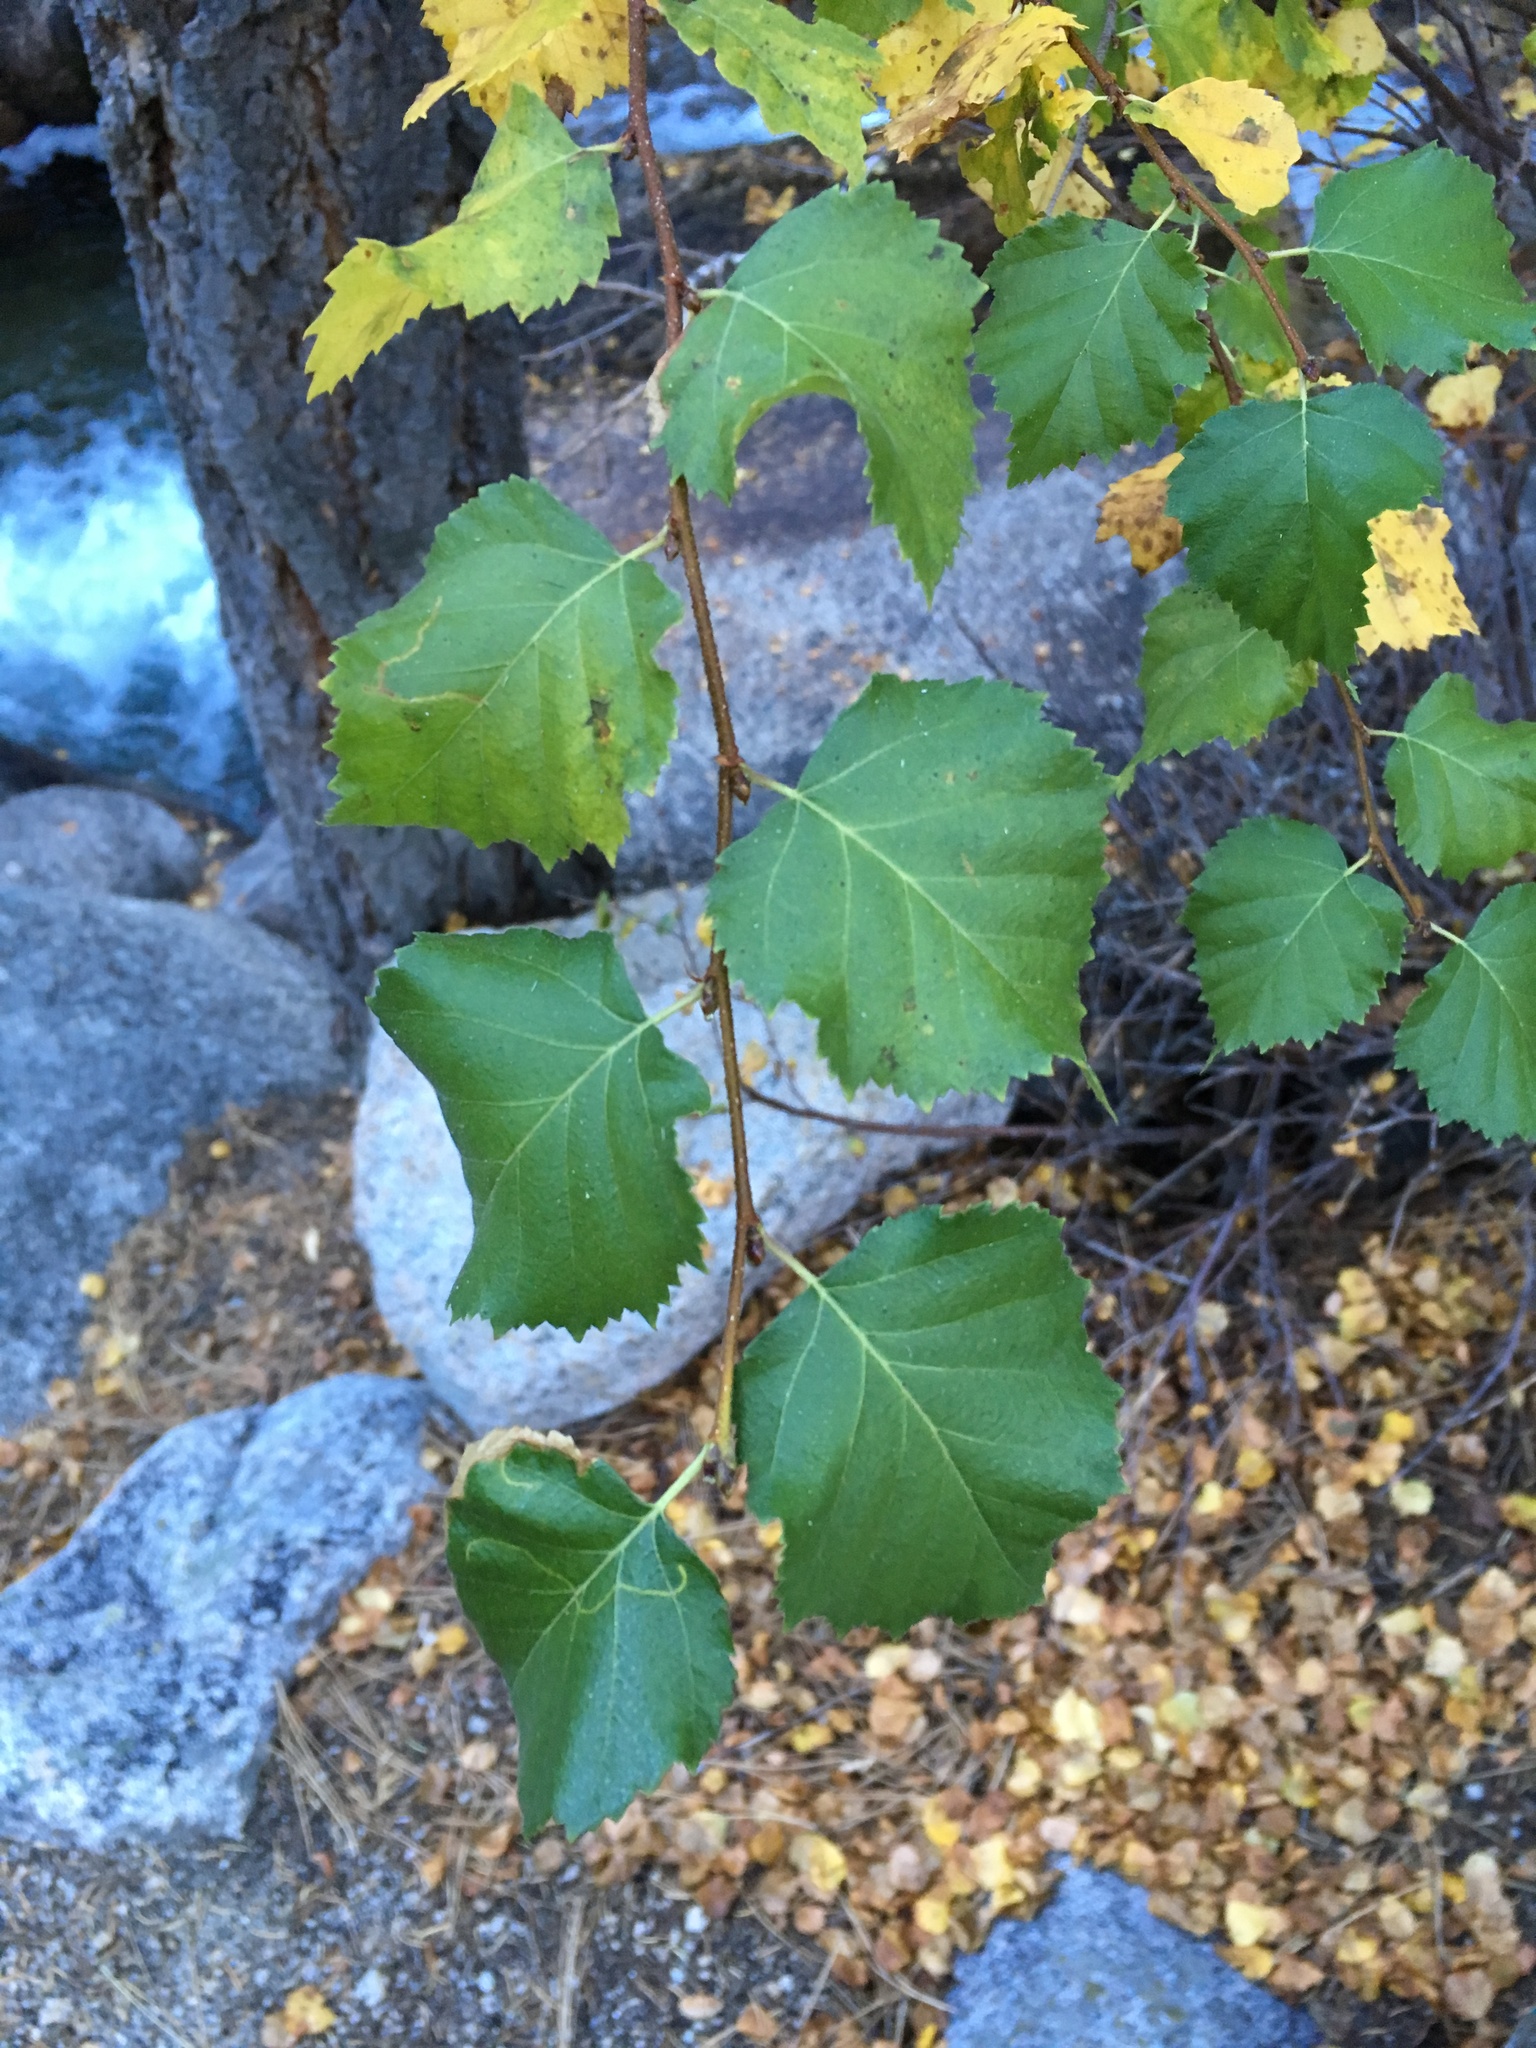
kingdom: Plantae
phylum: Tracheophyta
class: Magnoliopsida
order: Fagales
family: Betulaceae
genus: Betula
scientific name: Betula occidentalis
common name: River birch
